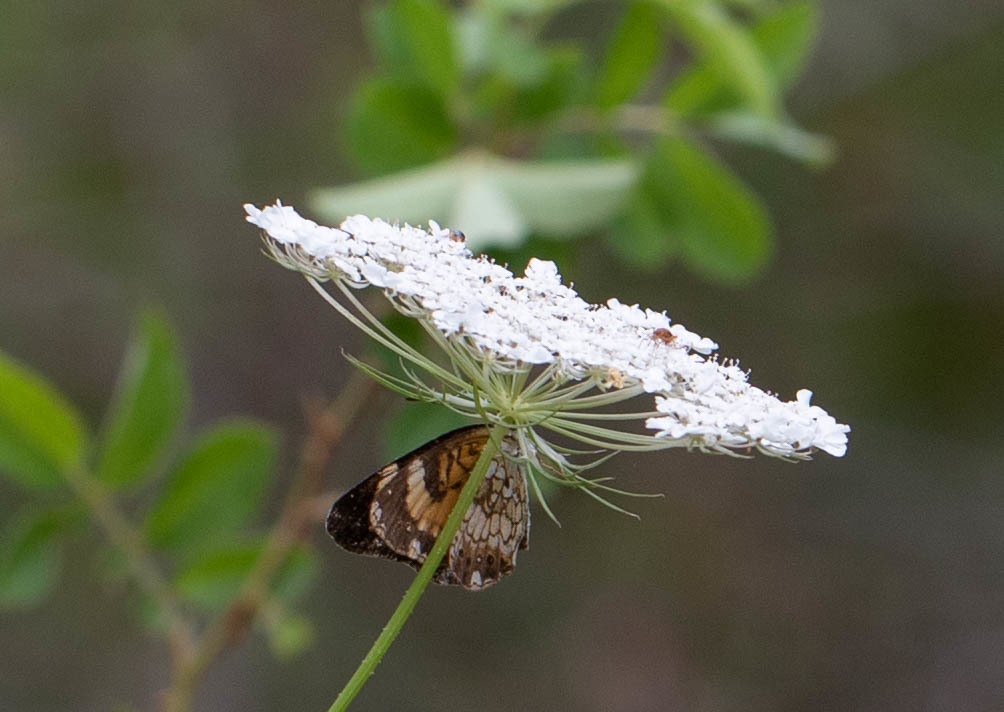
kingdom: Animalia
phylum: Arthropoda
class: Insecta
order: Lepidoptera
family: Nymphalidae
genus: Chlosyne
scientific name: Chlosyne nycteis
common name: Silvery checkerspot
